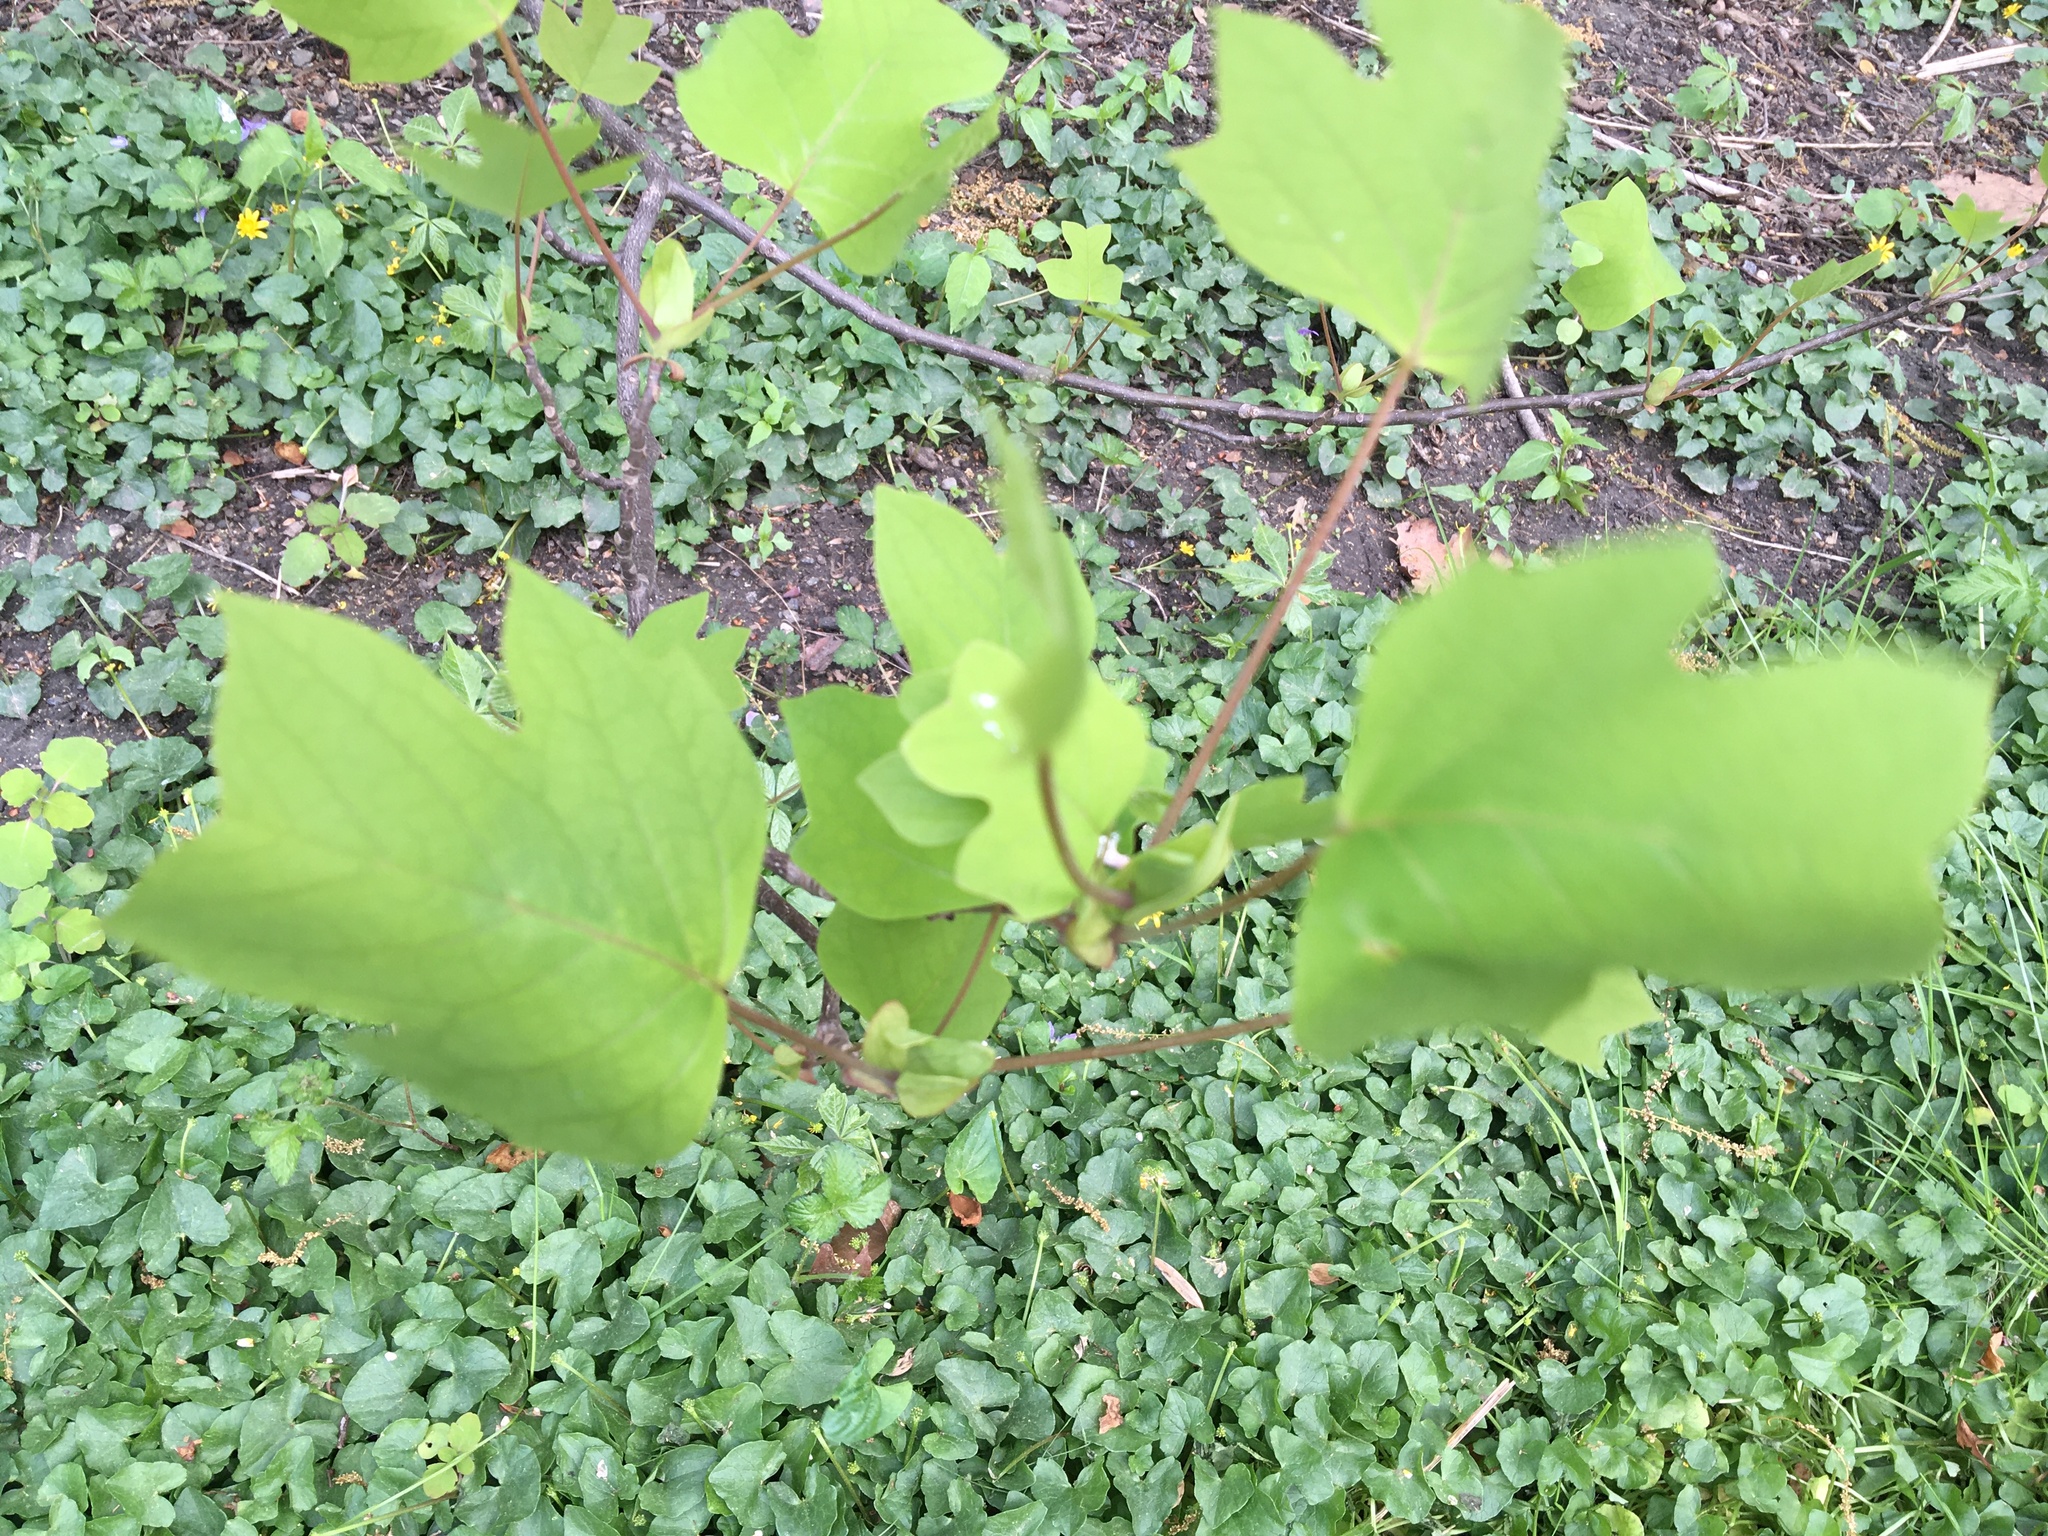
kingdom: Plantae
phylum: Tracheophyta
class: Magnoliopsida
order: Magnoliales
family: Magnoliaceae
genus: Liriodendron
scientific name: Liriodendron tulipifera
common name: Tulip tree
